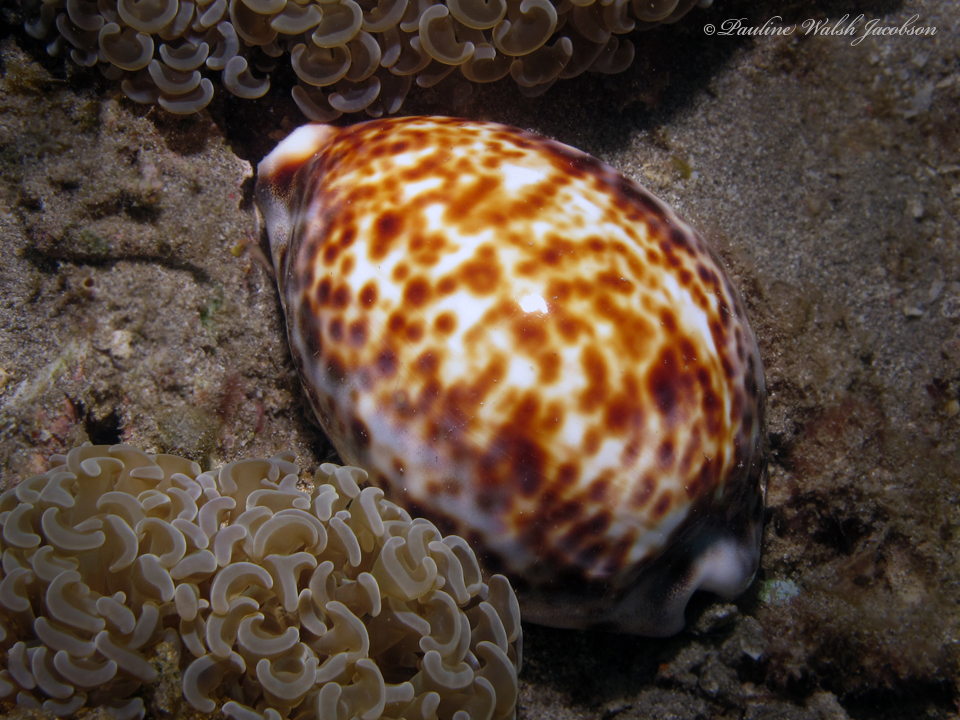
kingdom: Animalia
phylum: Mollusca
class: Gastropoda
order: Littorinimorpha
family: Cypraeidae
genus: Cypraea
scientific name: Cypraea tigris
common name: Tiger cowrie
